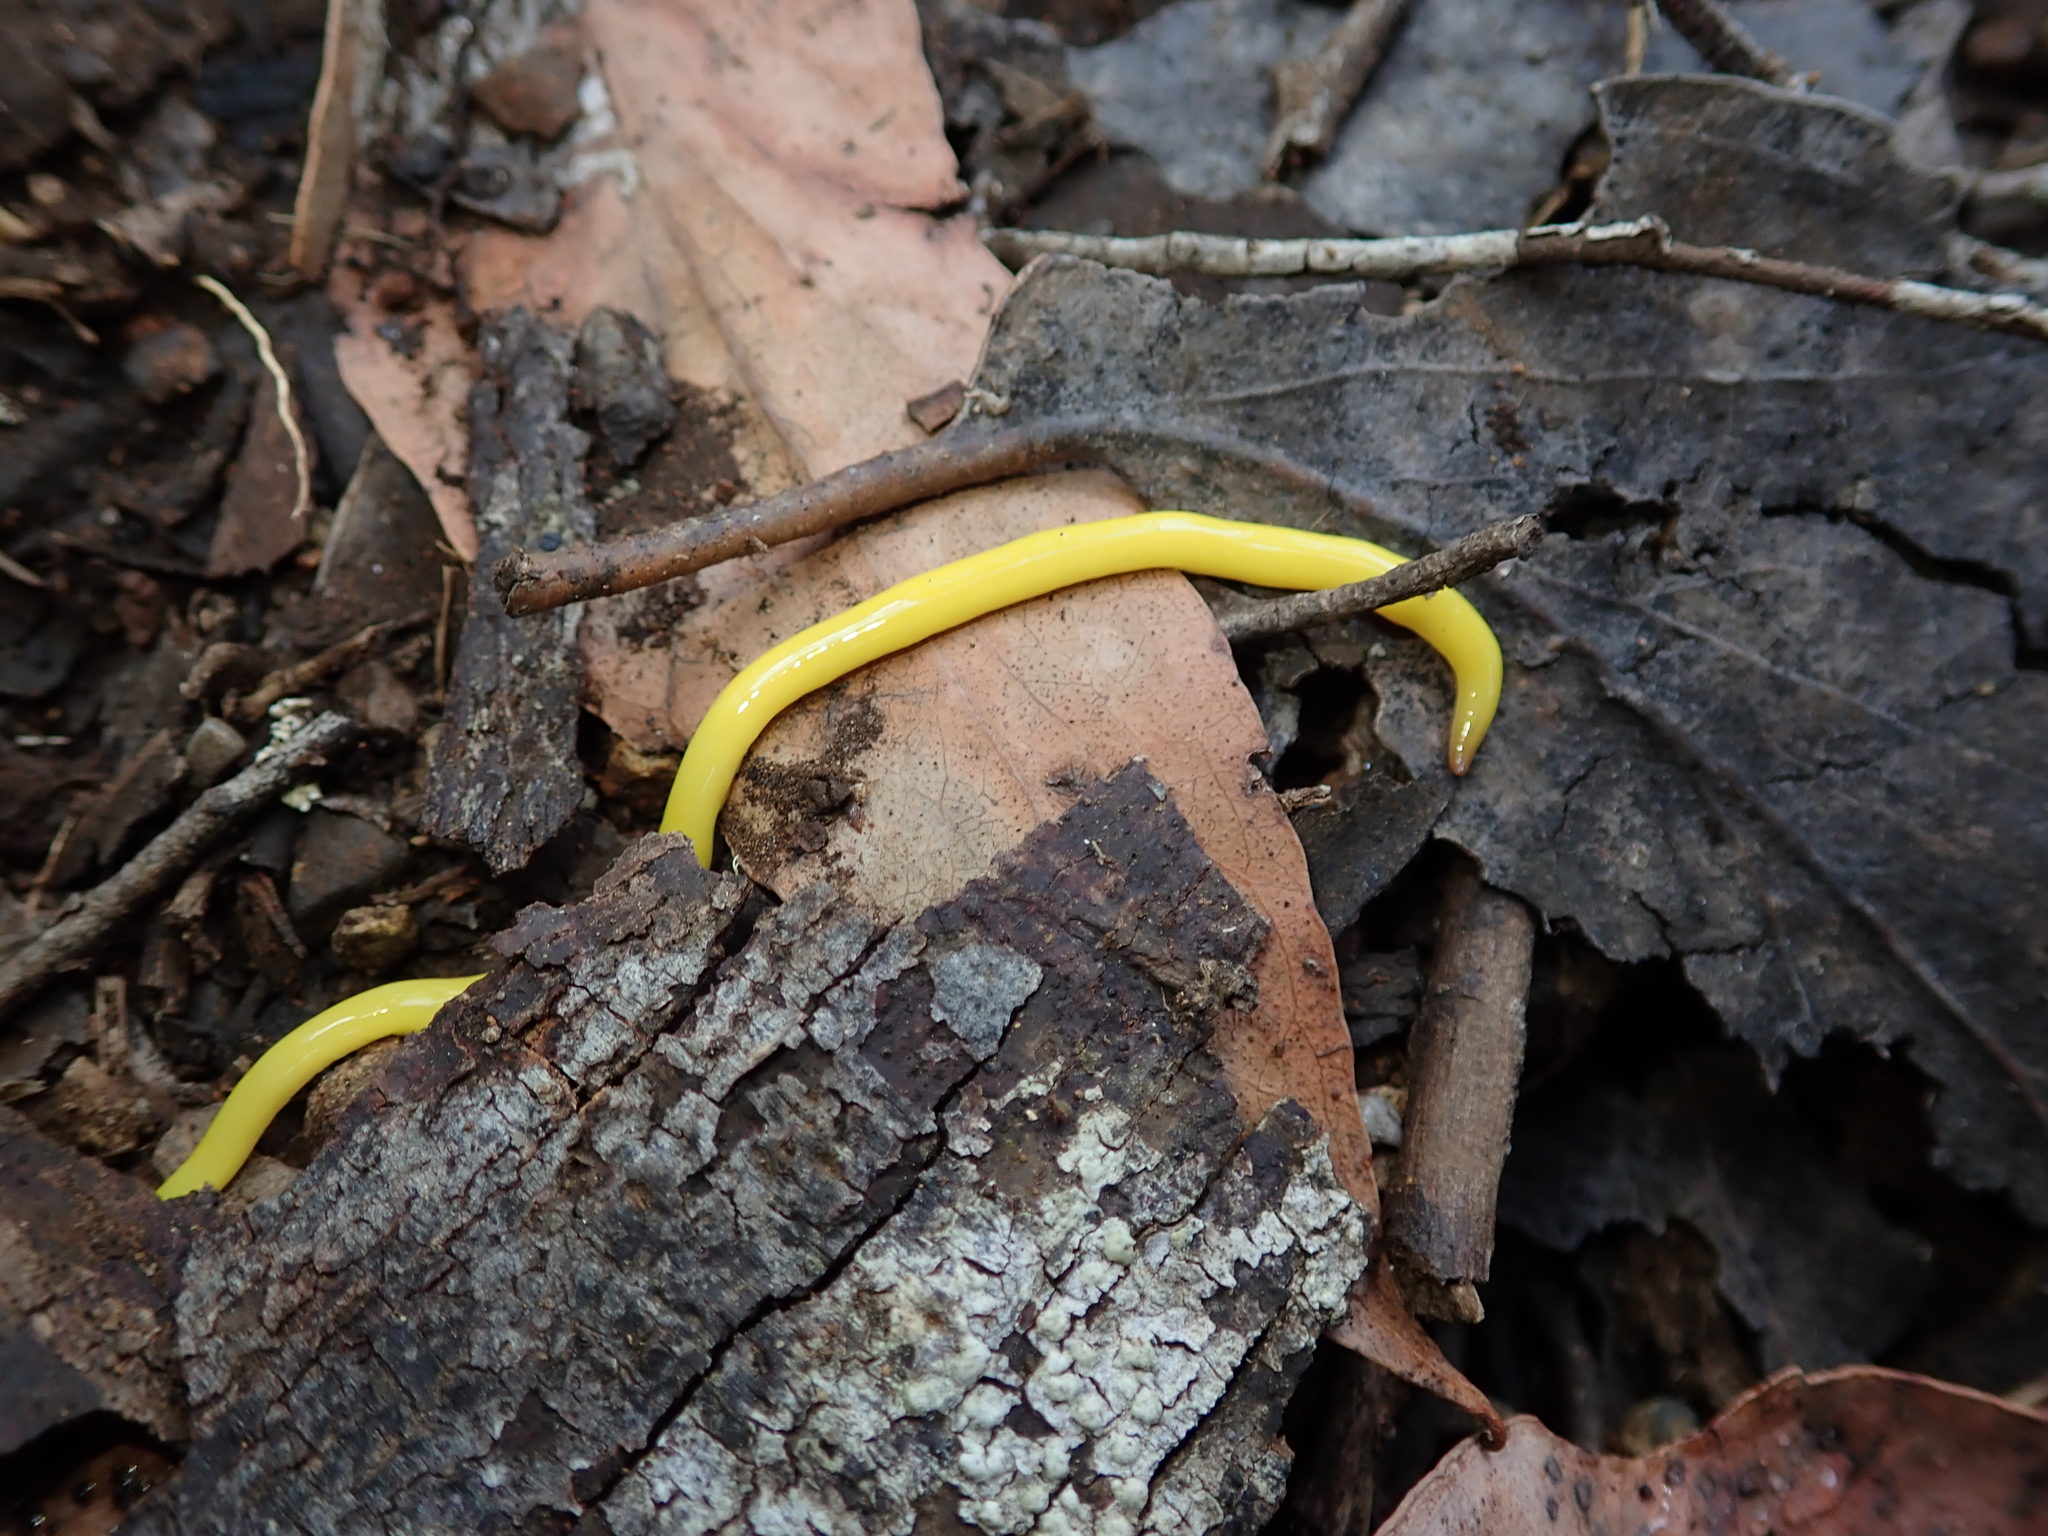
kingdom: Animalia
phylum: Platyhelminthes
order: Tricladida
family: Geoplanidae
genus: Fletchamia
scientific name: Fletchamia sugdeni
